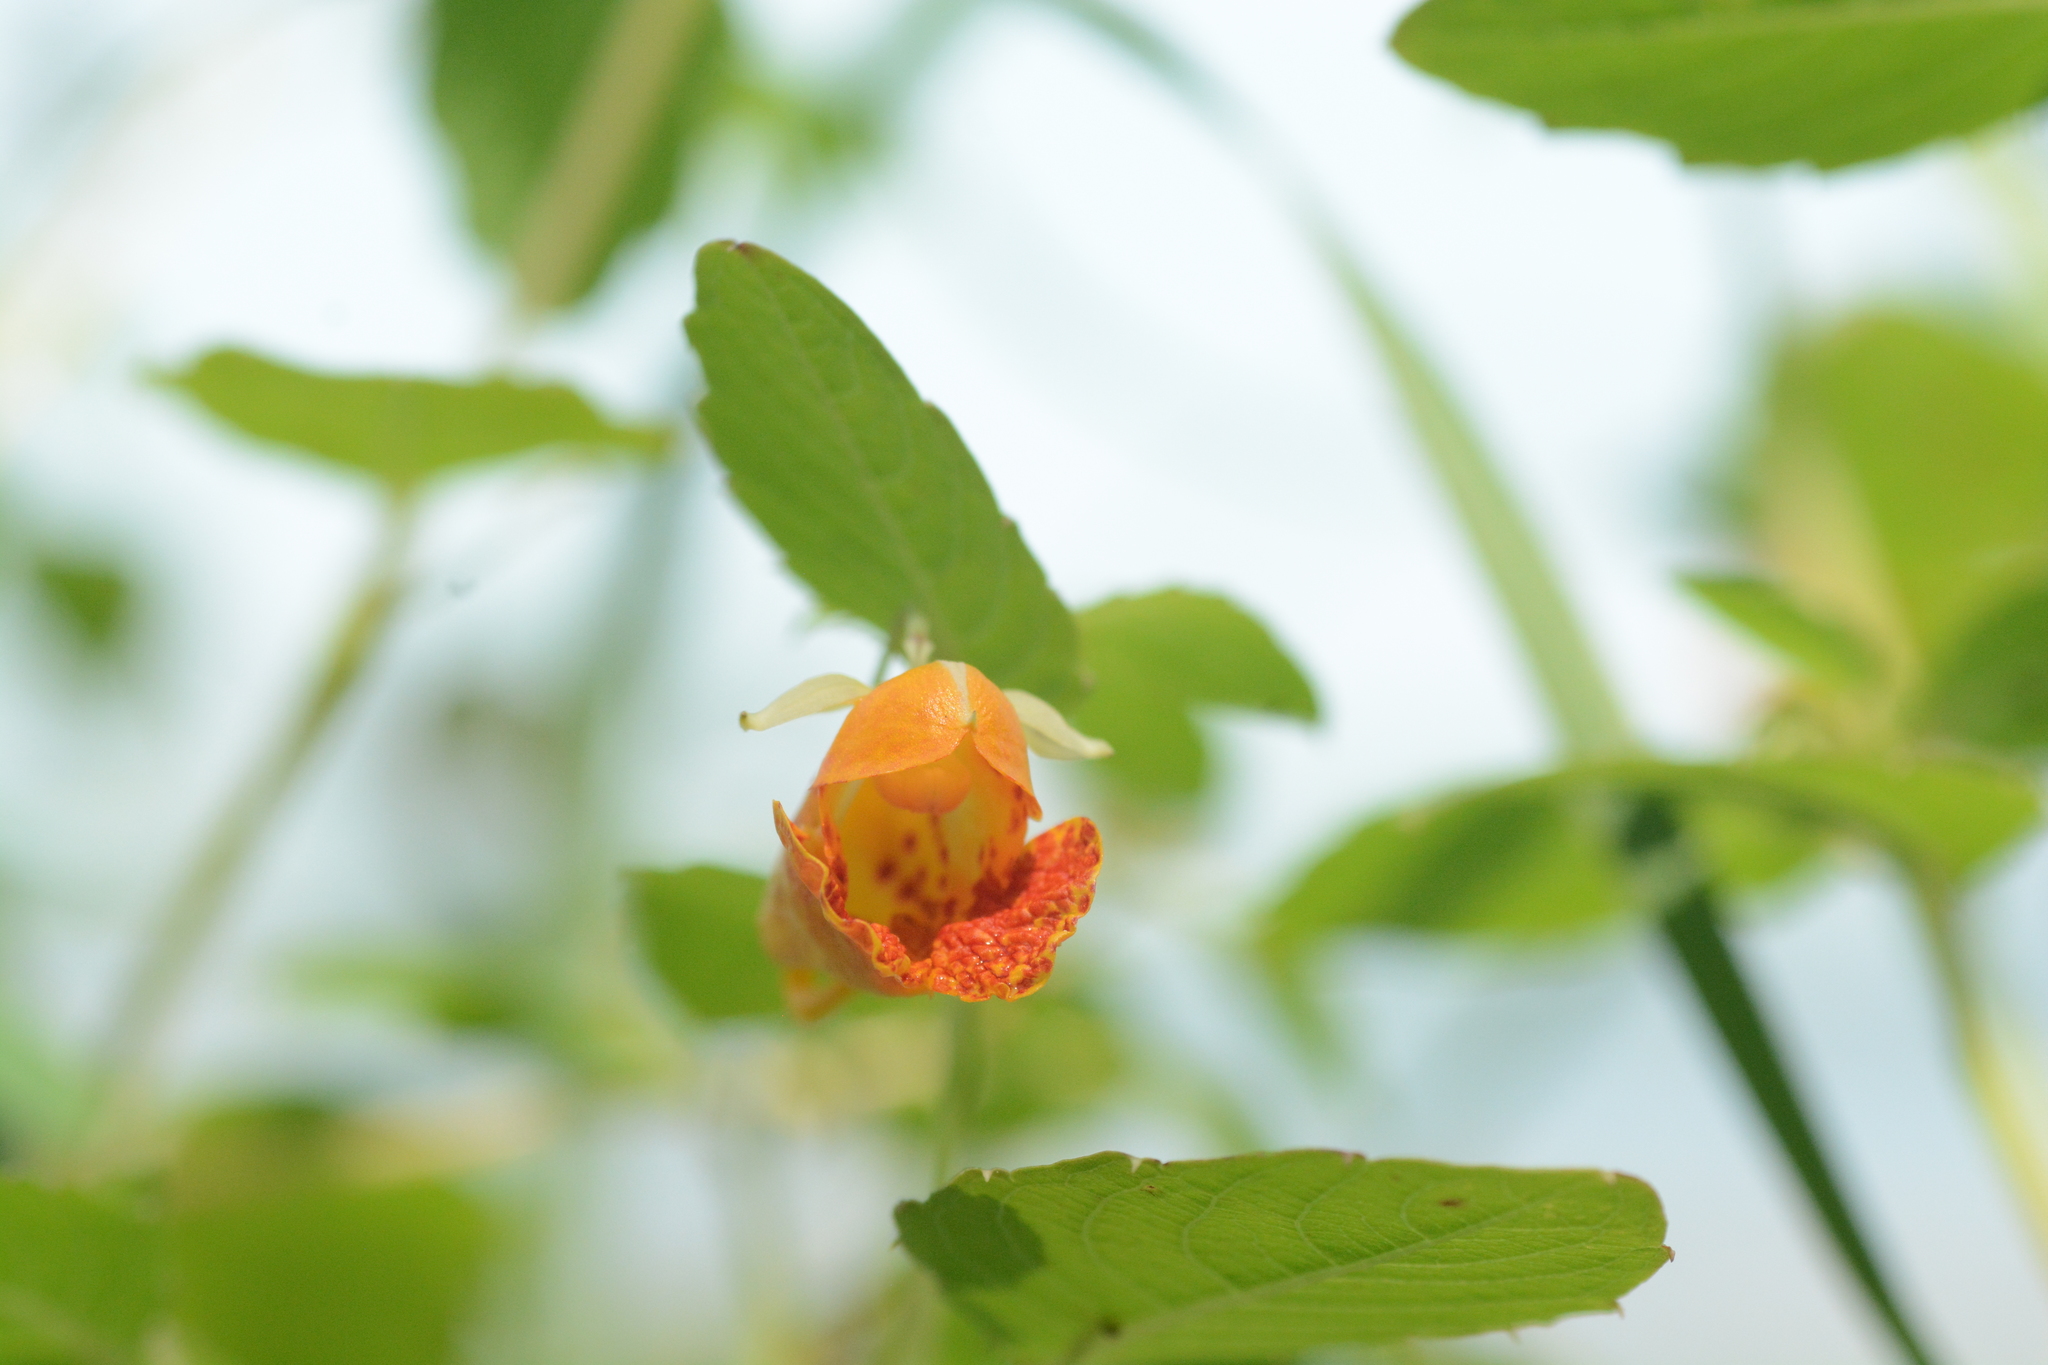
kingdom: Plantae
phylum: Tracheophyta
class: Magnoliopsida
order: Ericales
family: Balsaminaceae
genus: Impatiens
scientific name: Impatiens capensis
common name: Orange balsam
